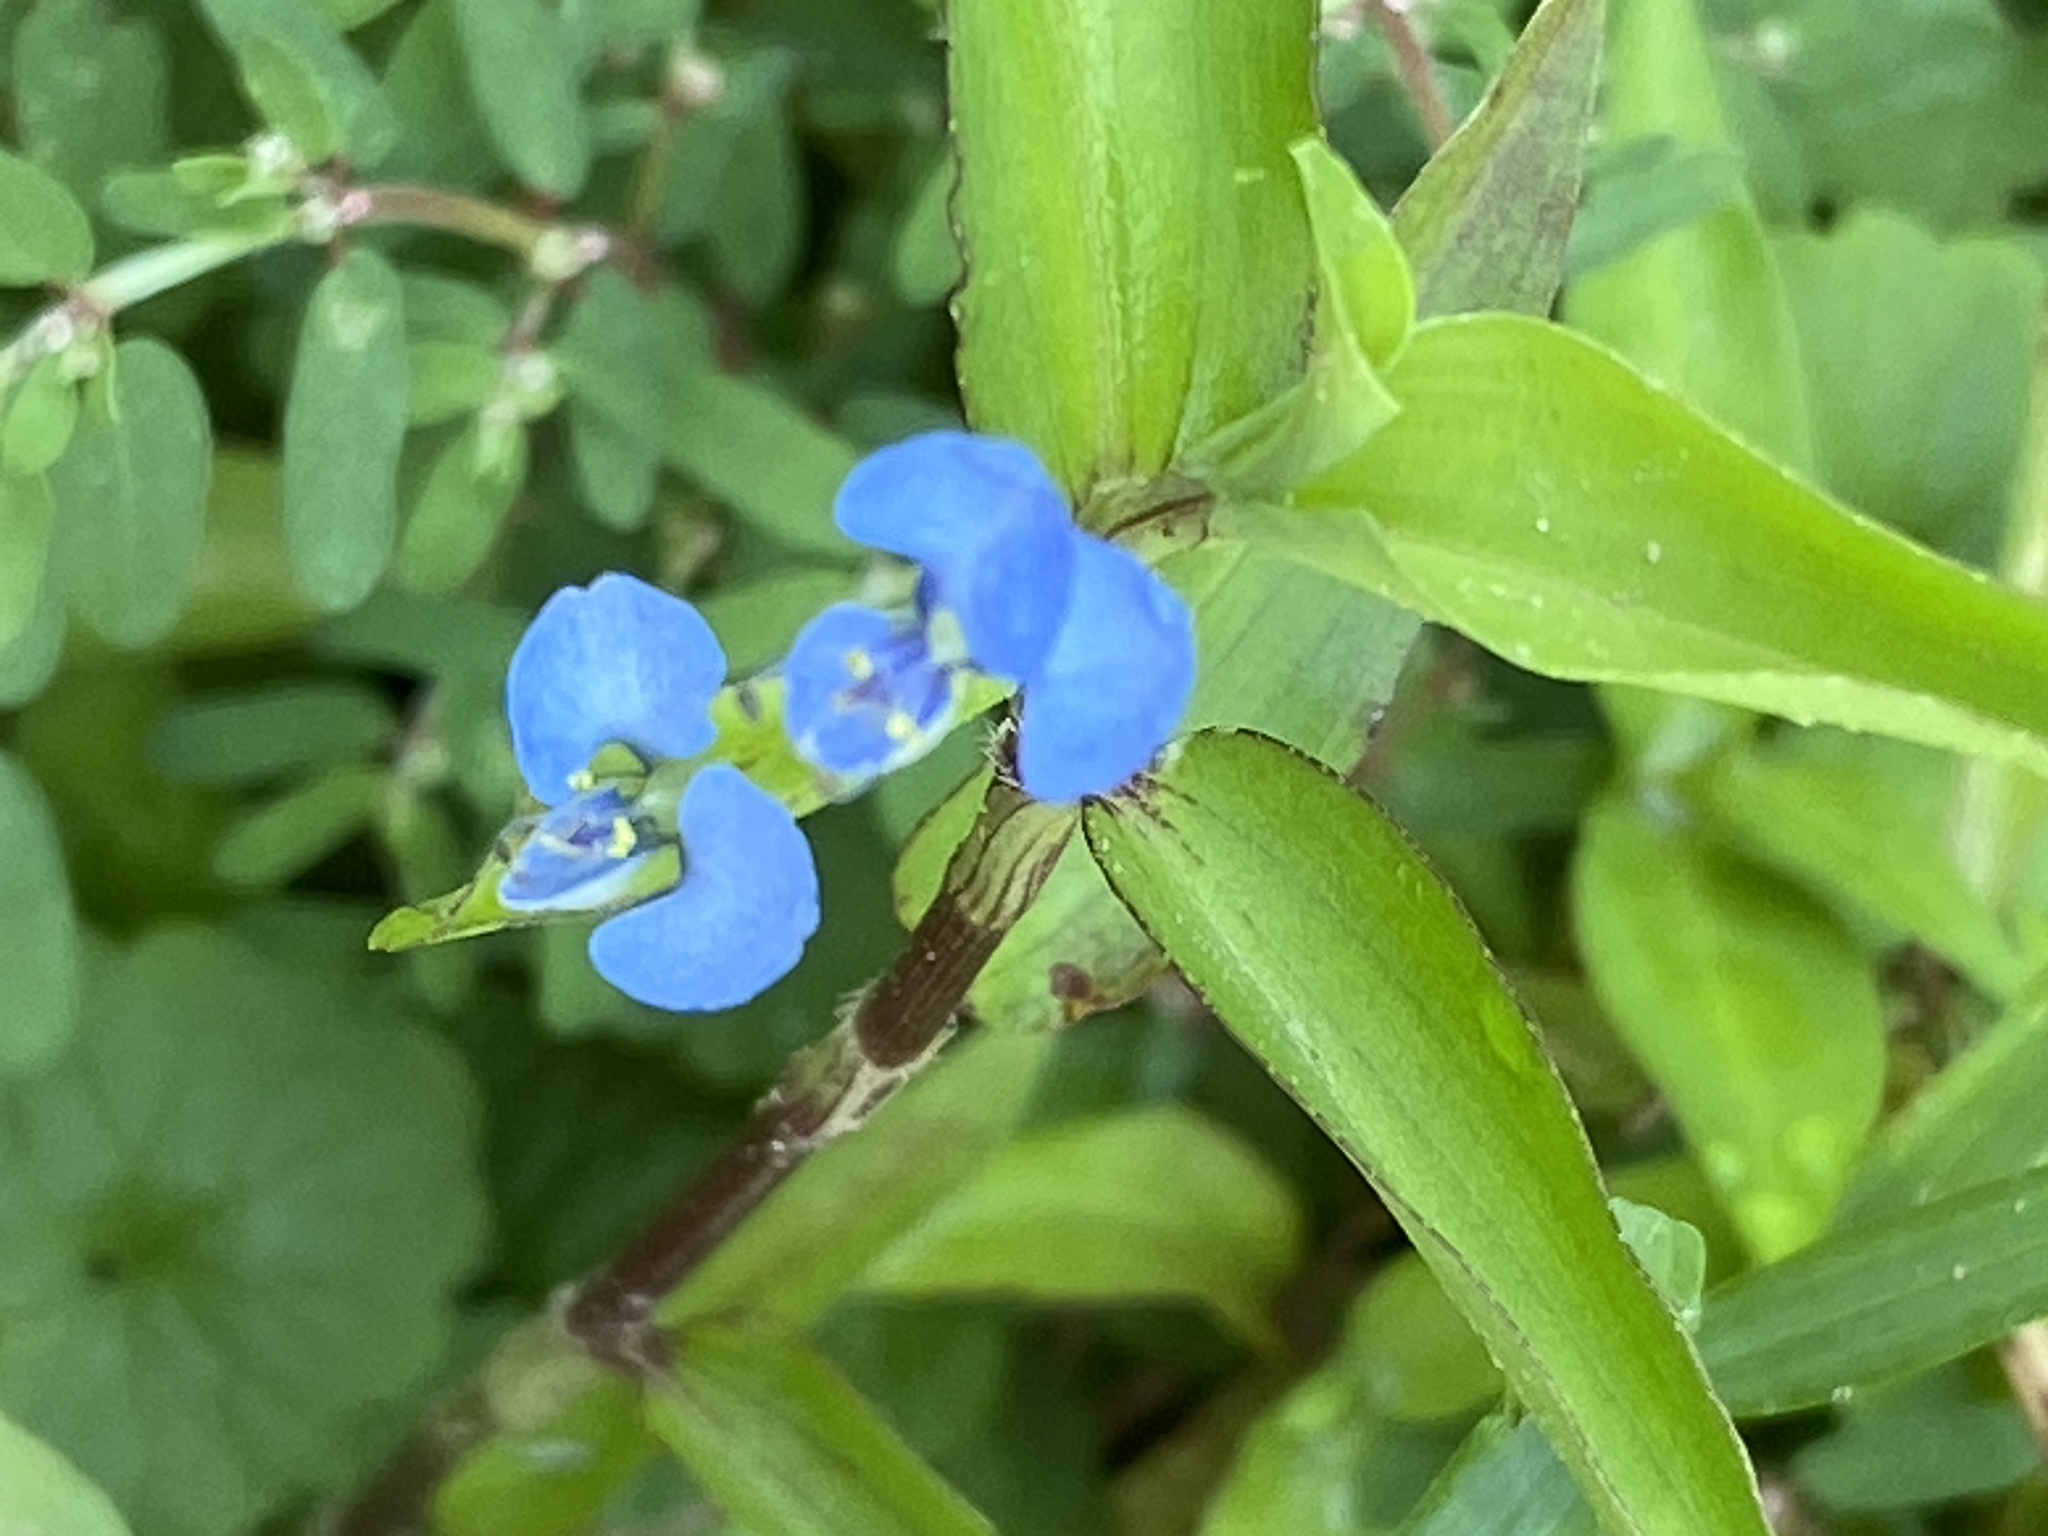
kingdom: Plantae
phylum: Tracheophyta
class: Liliopsida
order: Commelinales
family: Commelinaceae
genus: Commelina
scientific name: Commelina diffusa
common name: Climbing dayflower
